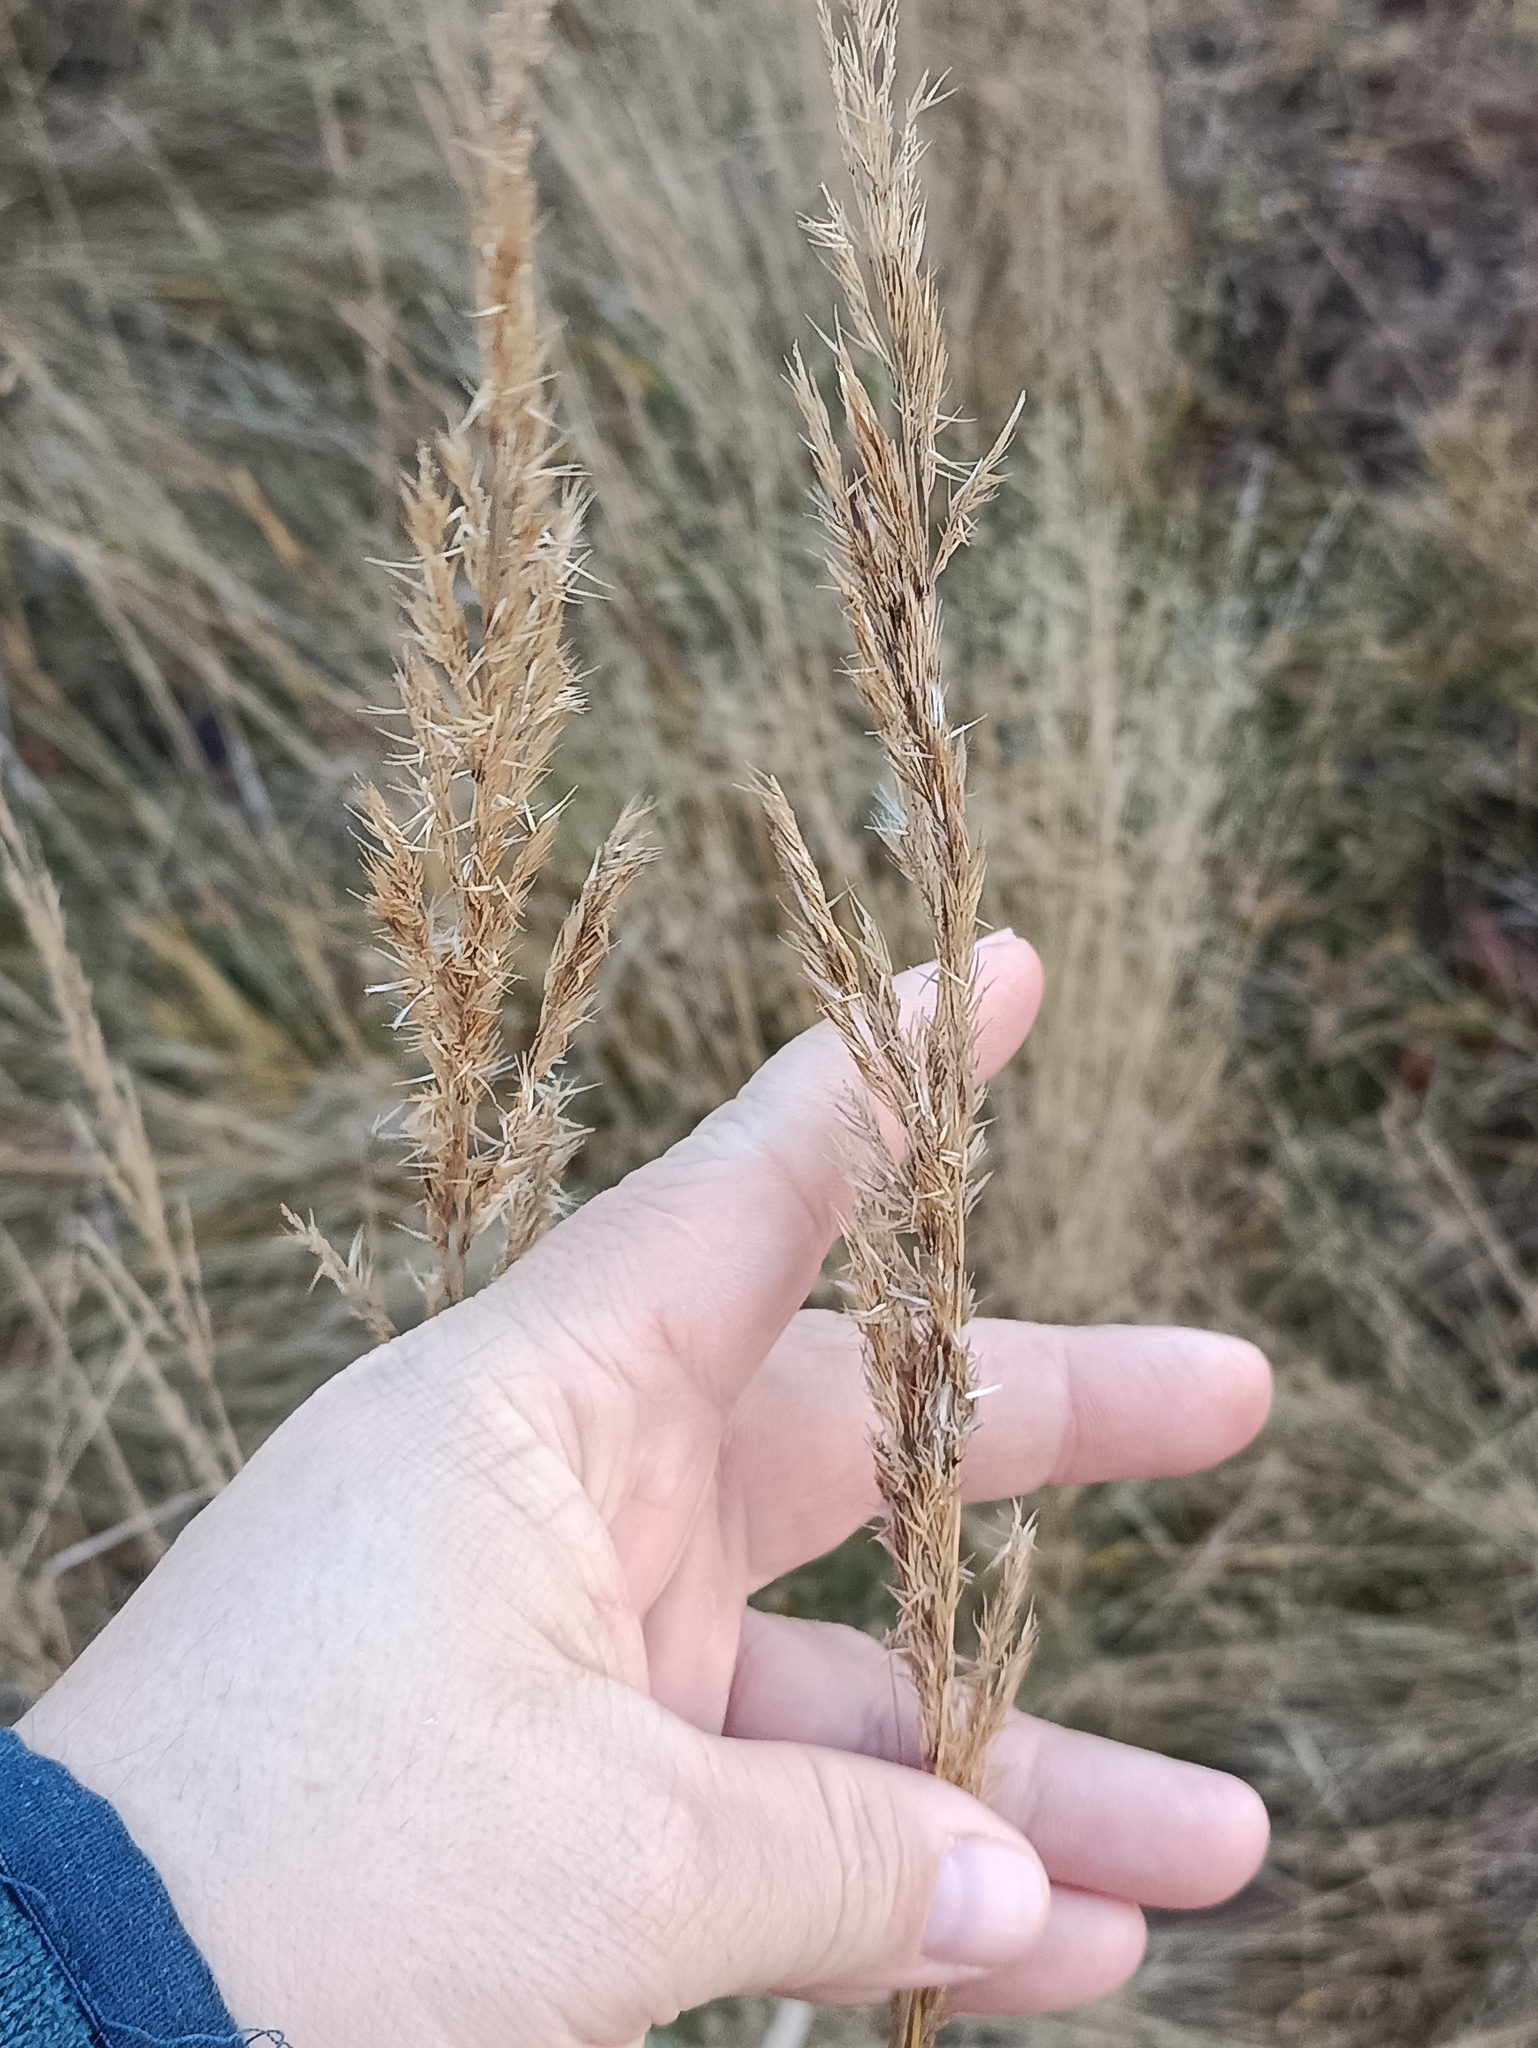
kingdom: Plantae
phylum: Tracheophyta
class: Liliopsida
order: Poales
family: Poaceae
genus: Calamagrostis
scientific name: Calamagrostis epigejos
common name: Wood small-reed
